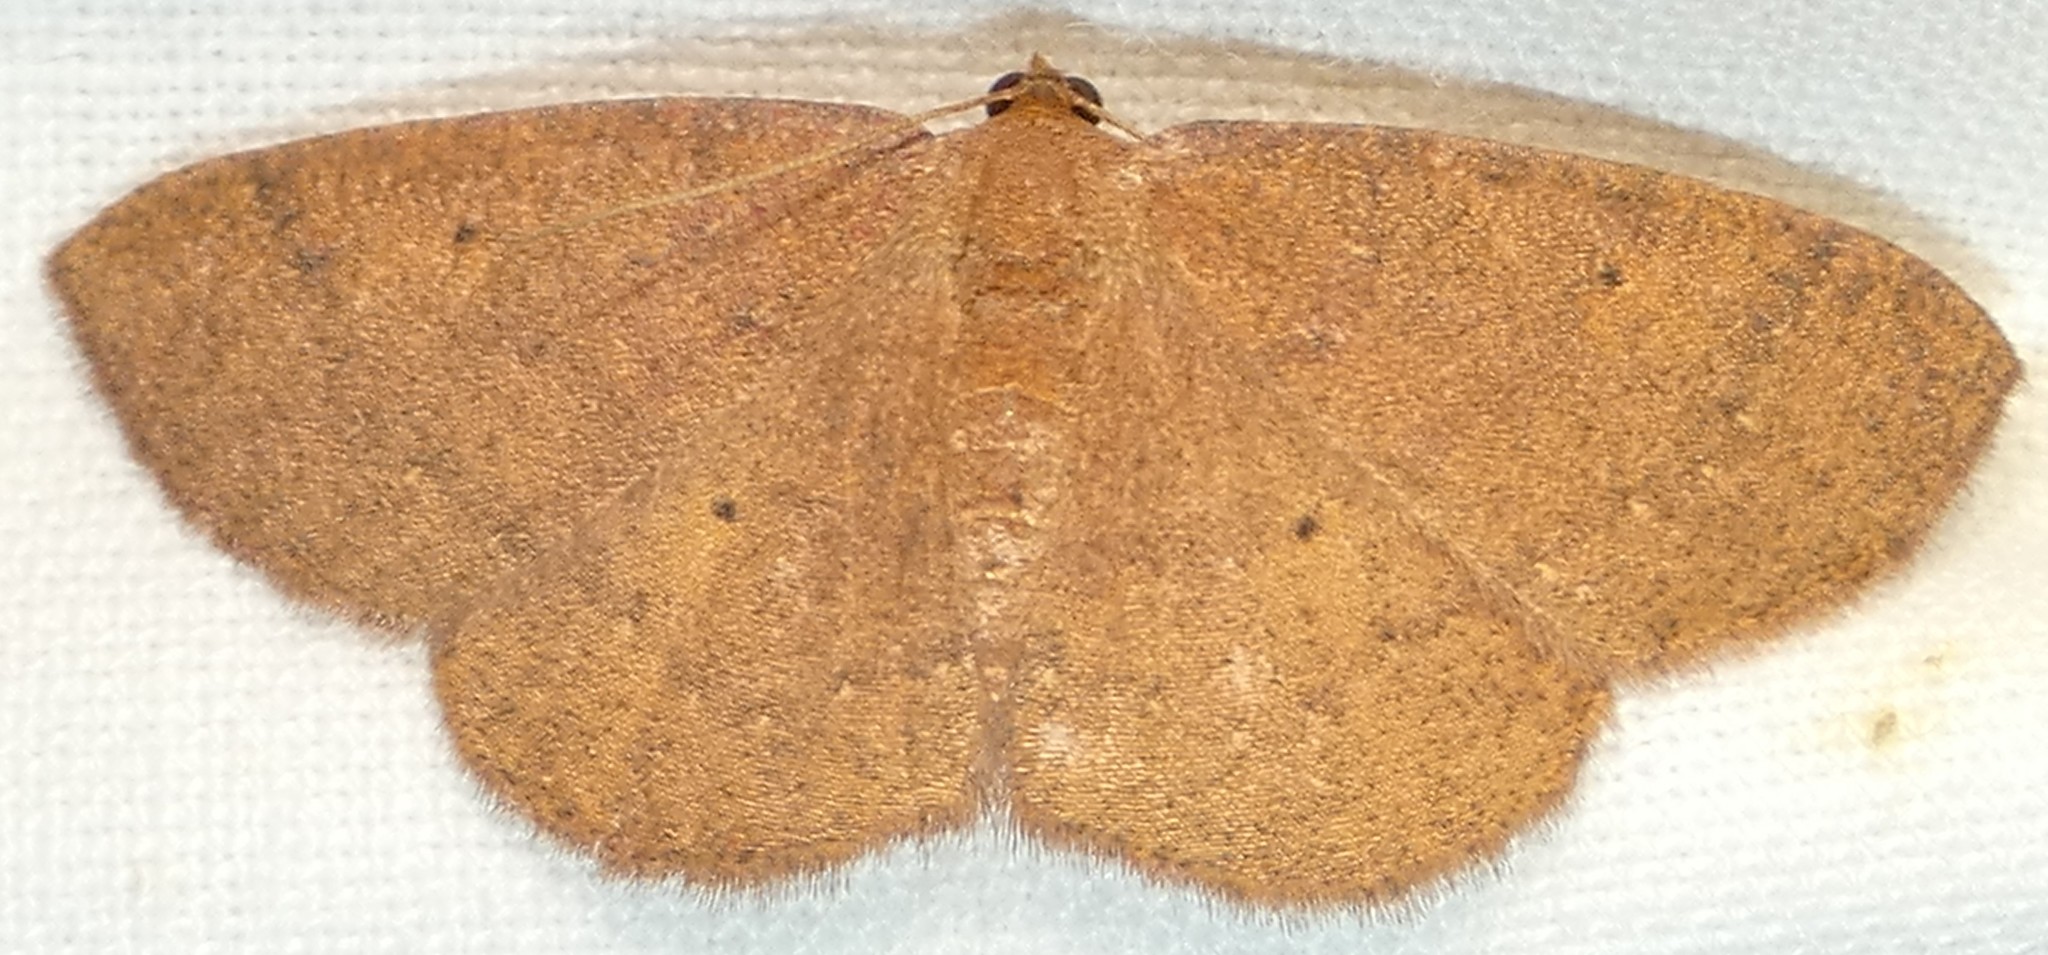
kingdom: Animalia
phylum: Arthropoda
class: Insecta
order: Lepidoptera
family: Geometridae
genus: Ilexia
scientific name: Ilexia intractata
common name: Black-dotted ruddy moth
